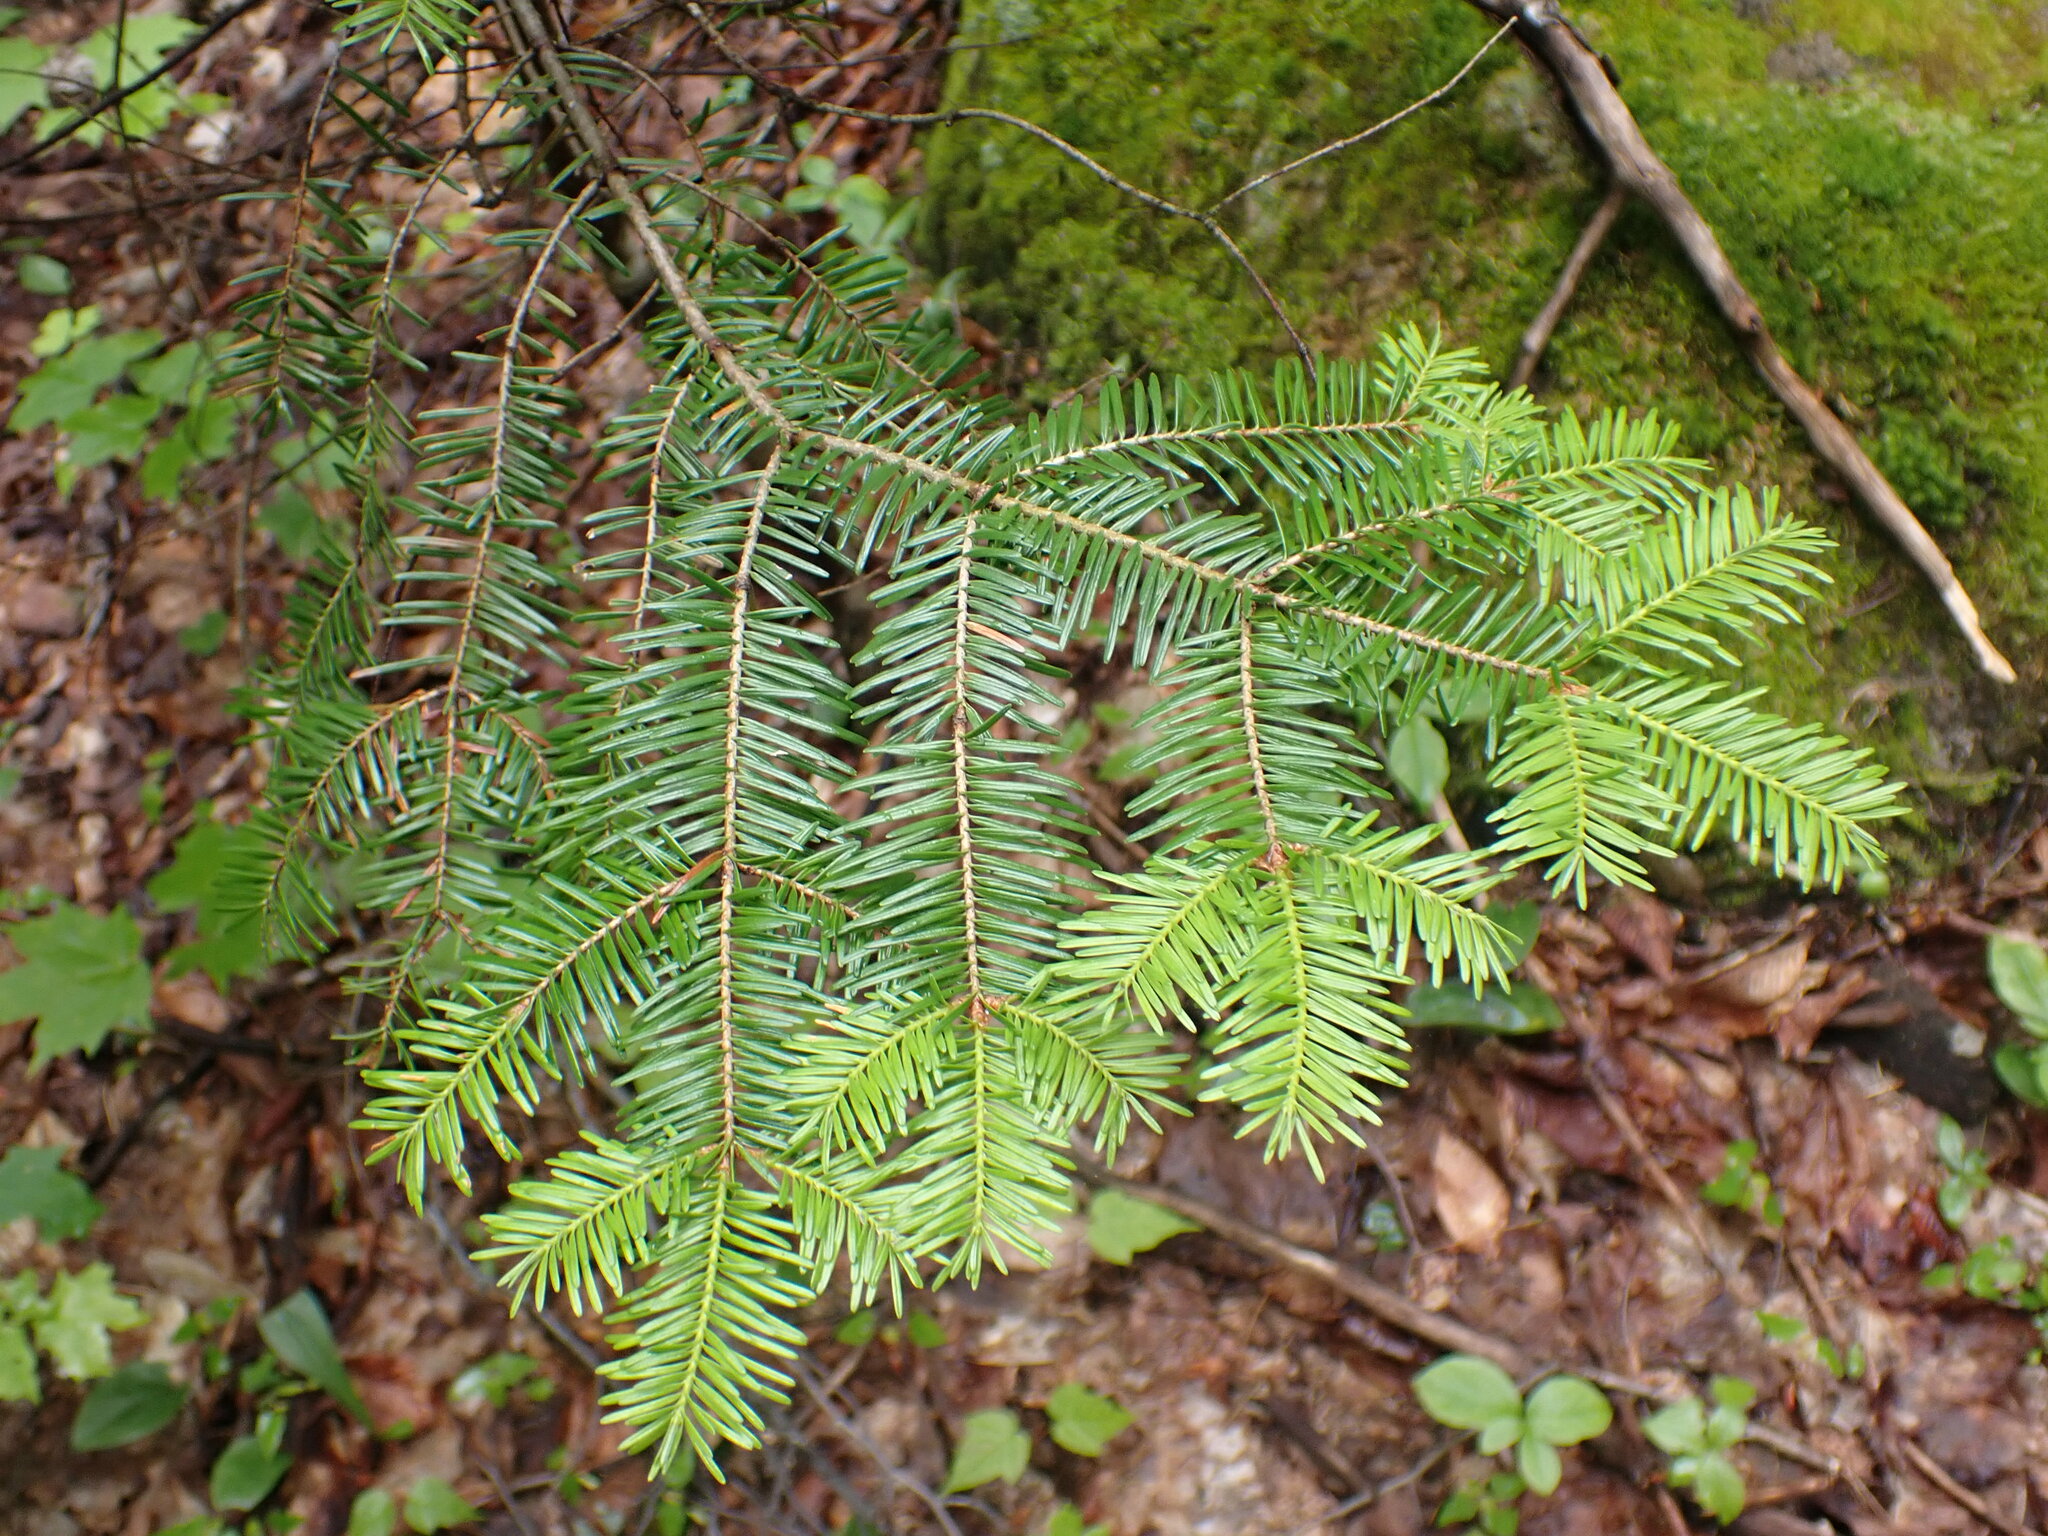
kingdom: Plantae
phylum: Tracheophyta
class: Pinopsida
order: Pinales
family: Pinaceae
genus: Abies
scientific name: Abies balsamea
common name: Balsam fir
